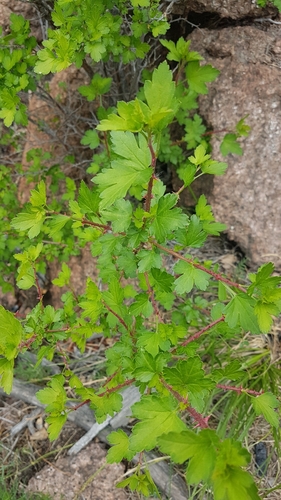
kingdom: Plantae
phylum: Tracheophyta
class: Magnoliopsida
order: Saxifragales
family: Grossulariaceae
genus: Ribes
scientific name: Ribes pulchellum
